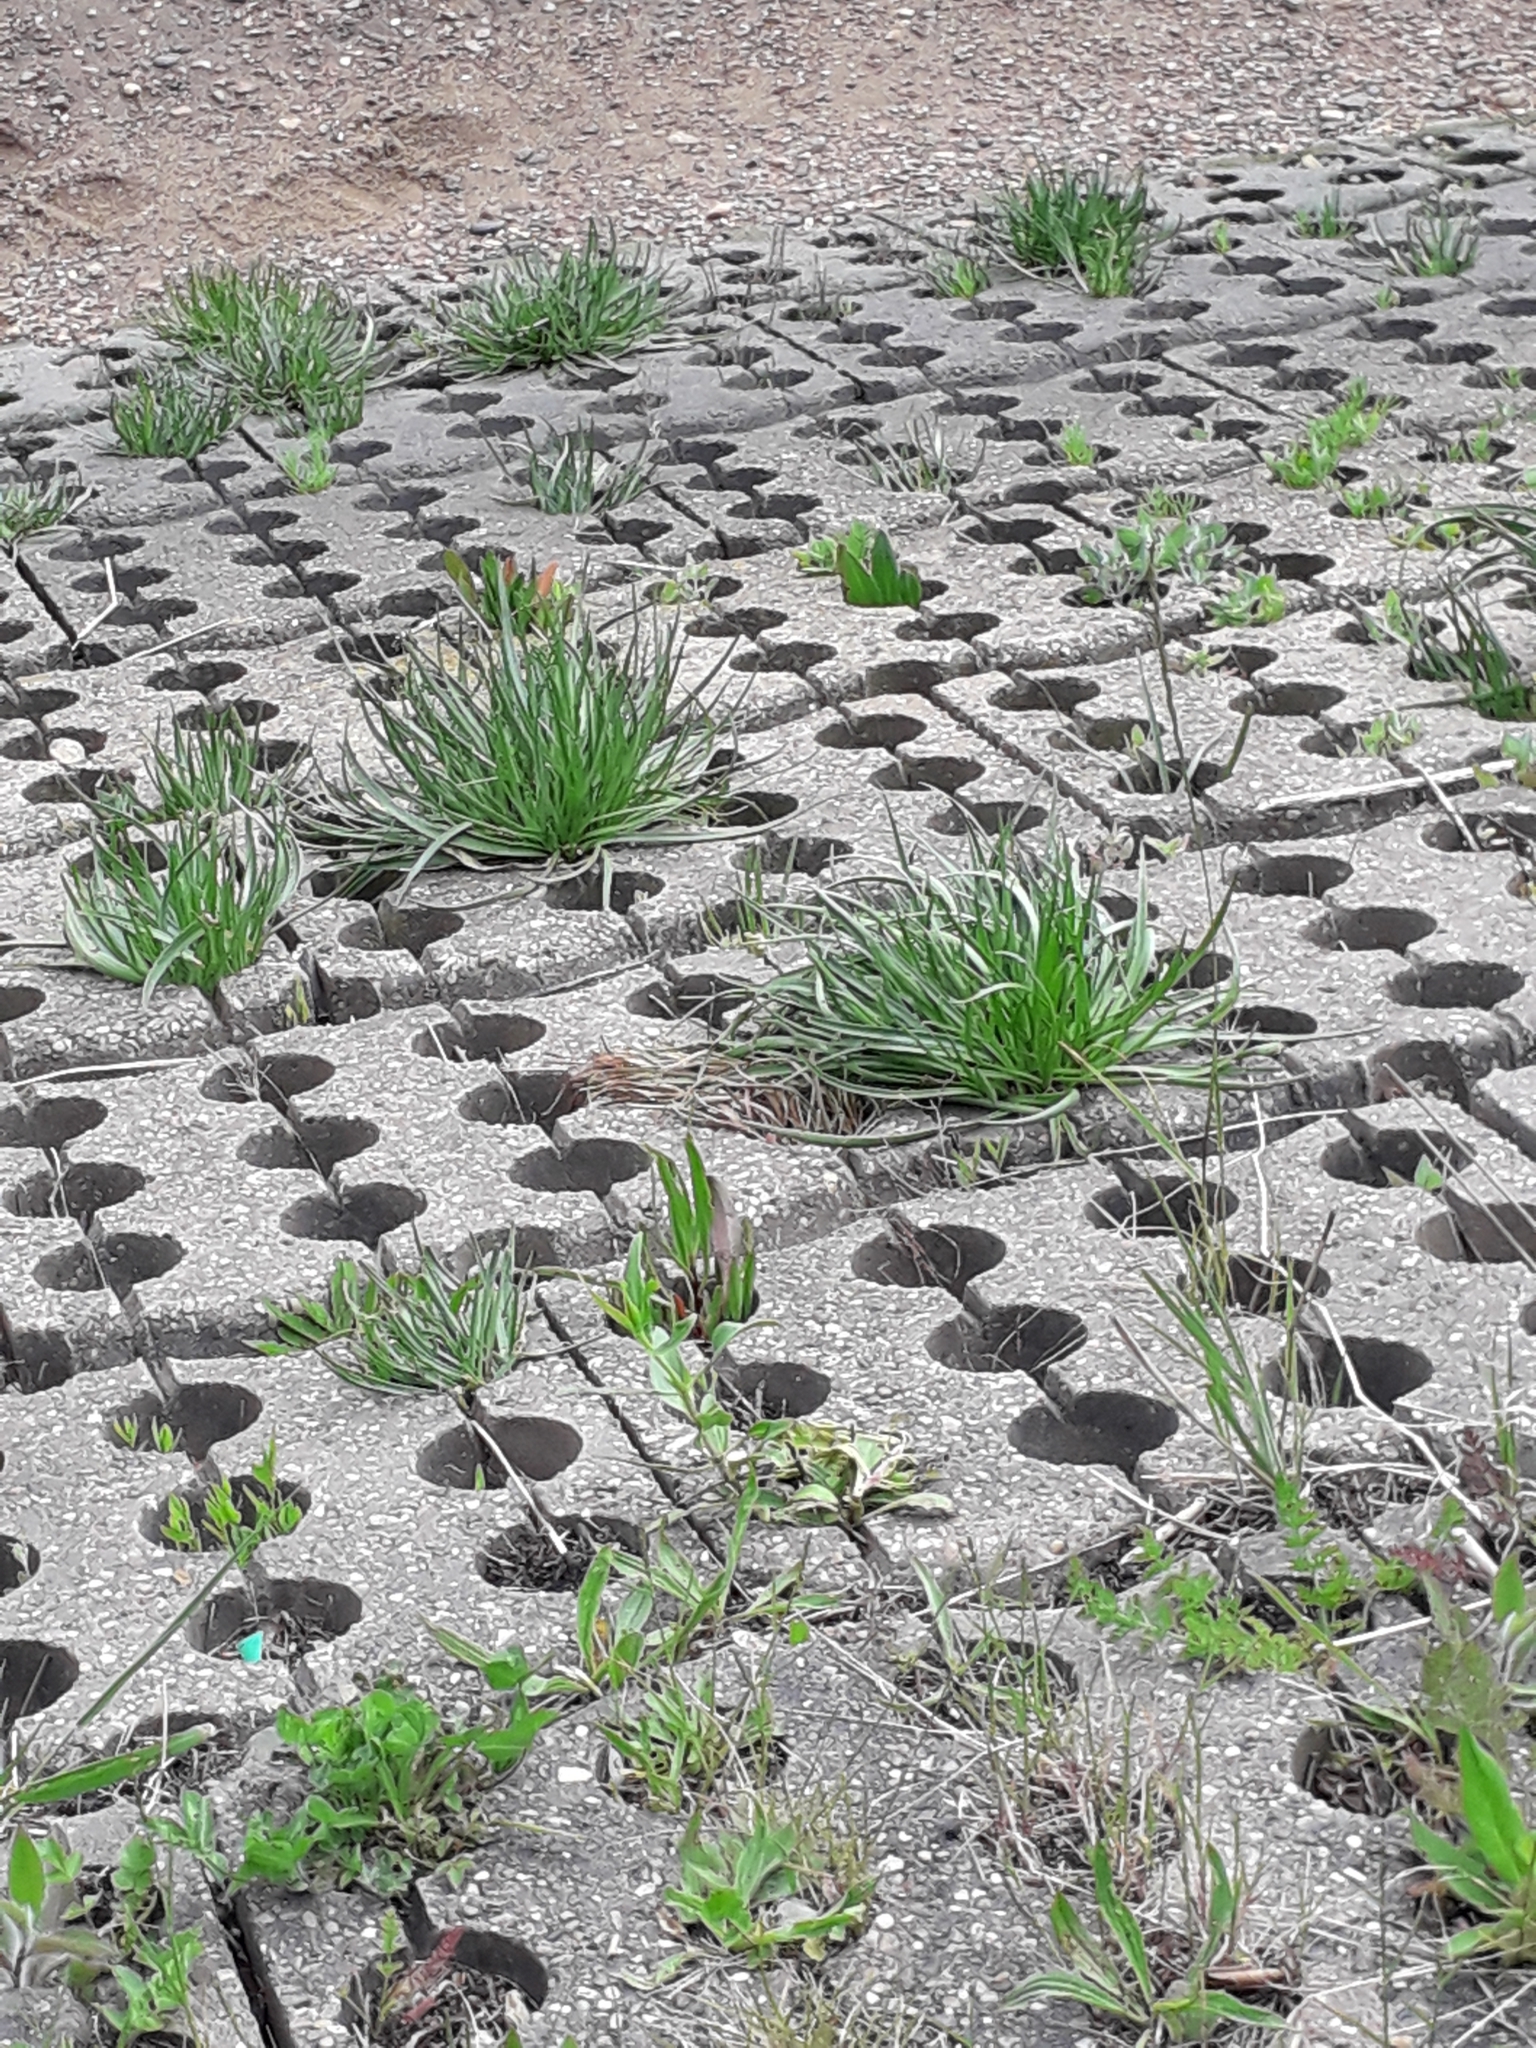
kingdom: Plantae
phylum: Tracheophyta
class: Magnoliopsida
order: Lamiales
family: Plantaginaceae
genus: Plantago
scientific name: Plantago maritima
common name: Sea plantain
